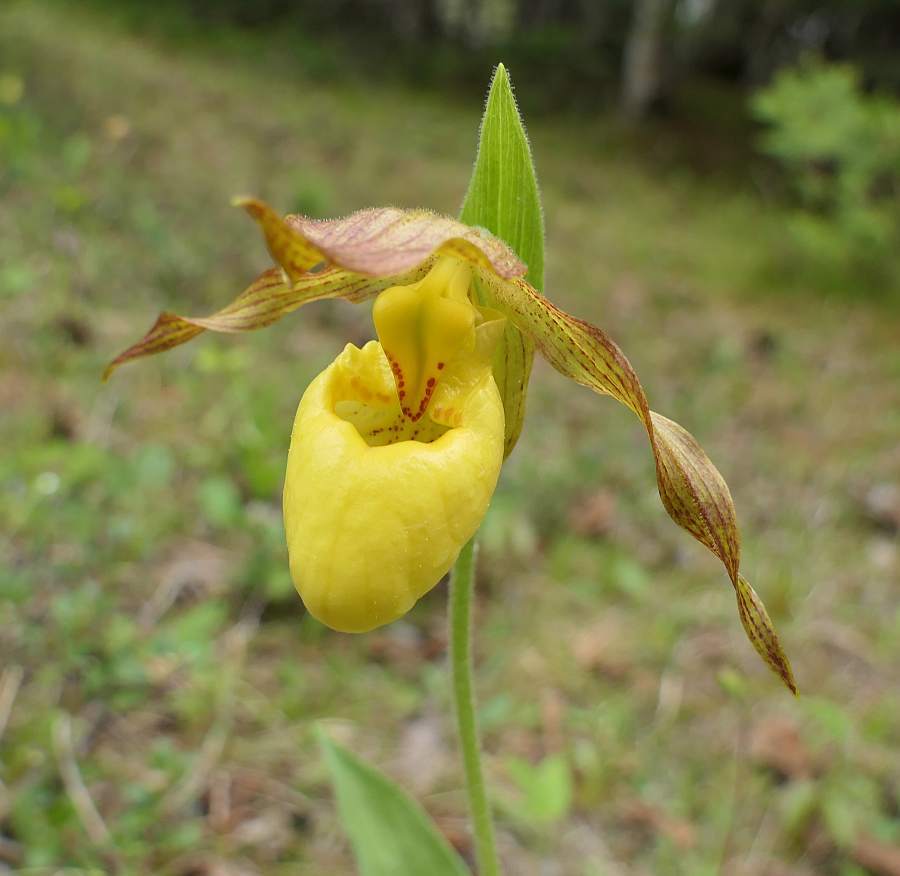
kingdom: Plantae
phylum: Tracheophyta
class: Liliopsida
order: Asparagales
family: Orchidaceae
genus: Cypripedium
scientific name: Cypripedium parviflorum
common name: American yellow lady's-slipper
